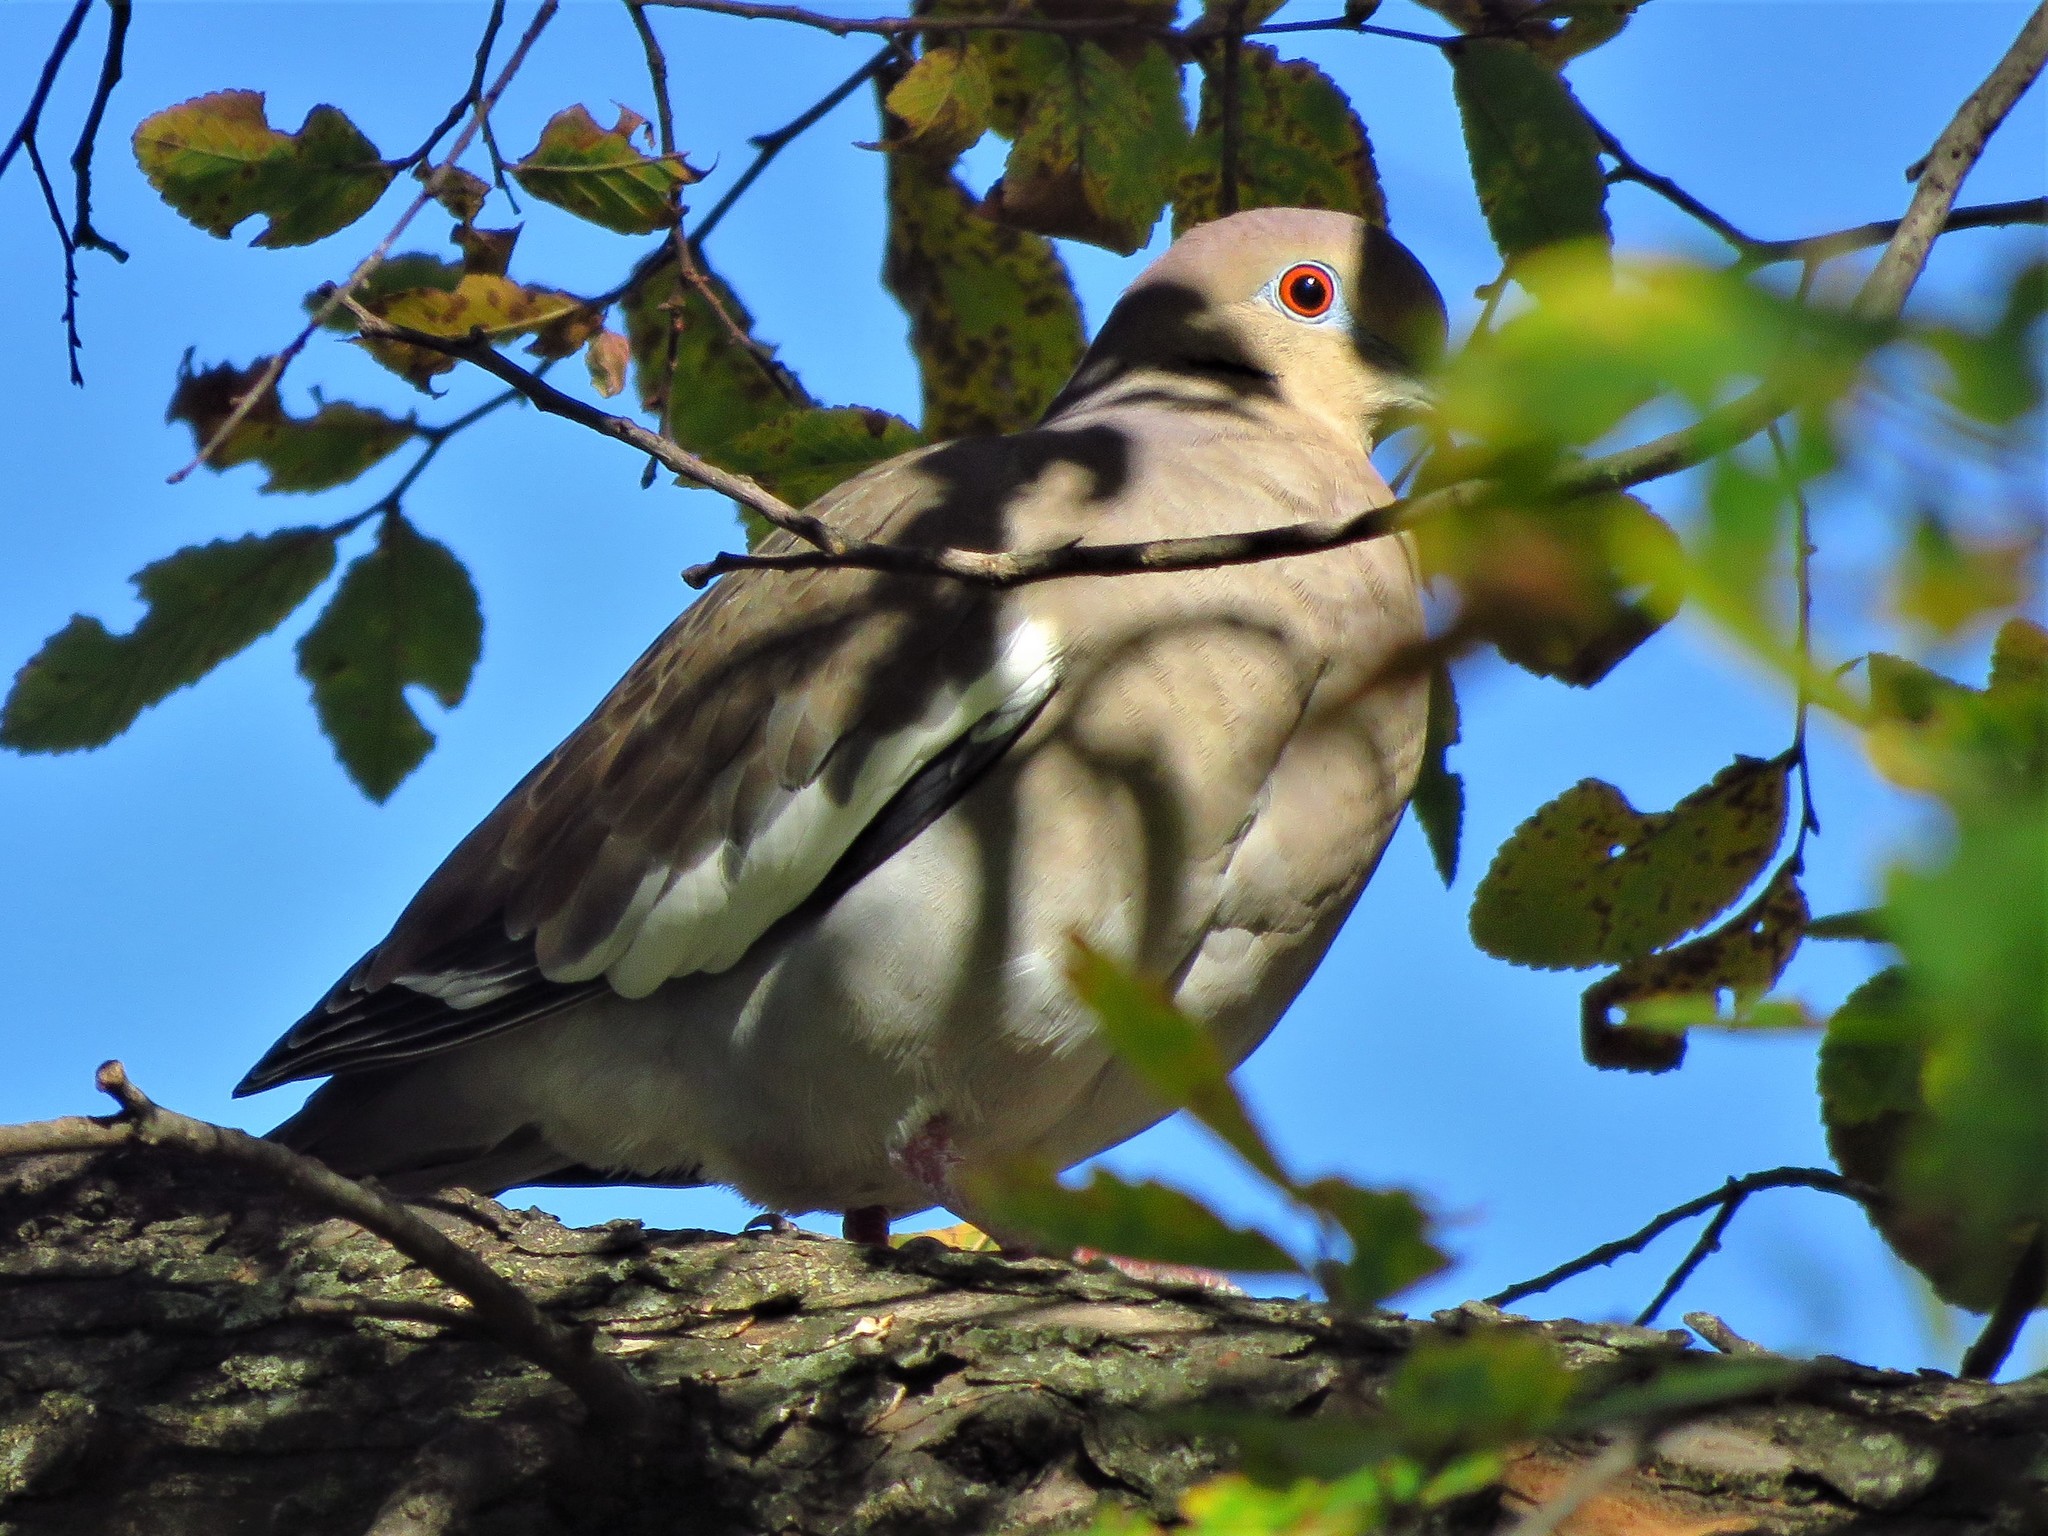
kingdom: Animalia
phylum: Chordata
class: Aves
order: Columbiformes
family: Columbidae
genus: Zenaida
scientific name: Zenaida asiatica
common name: White-winged dove
